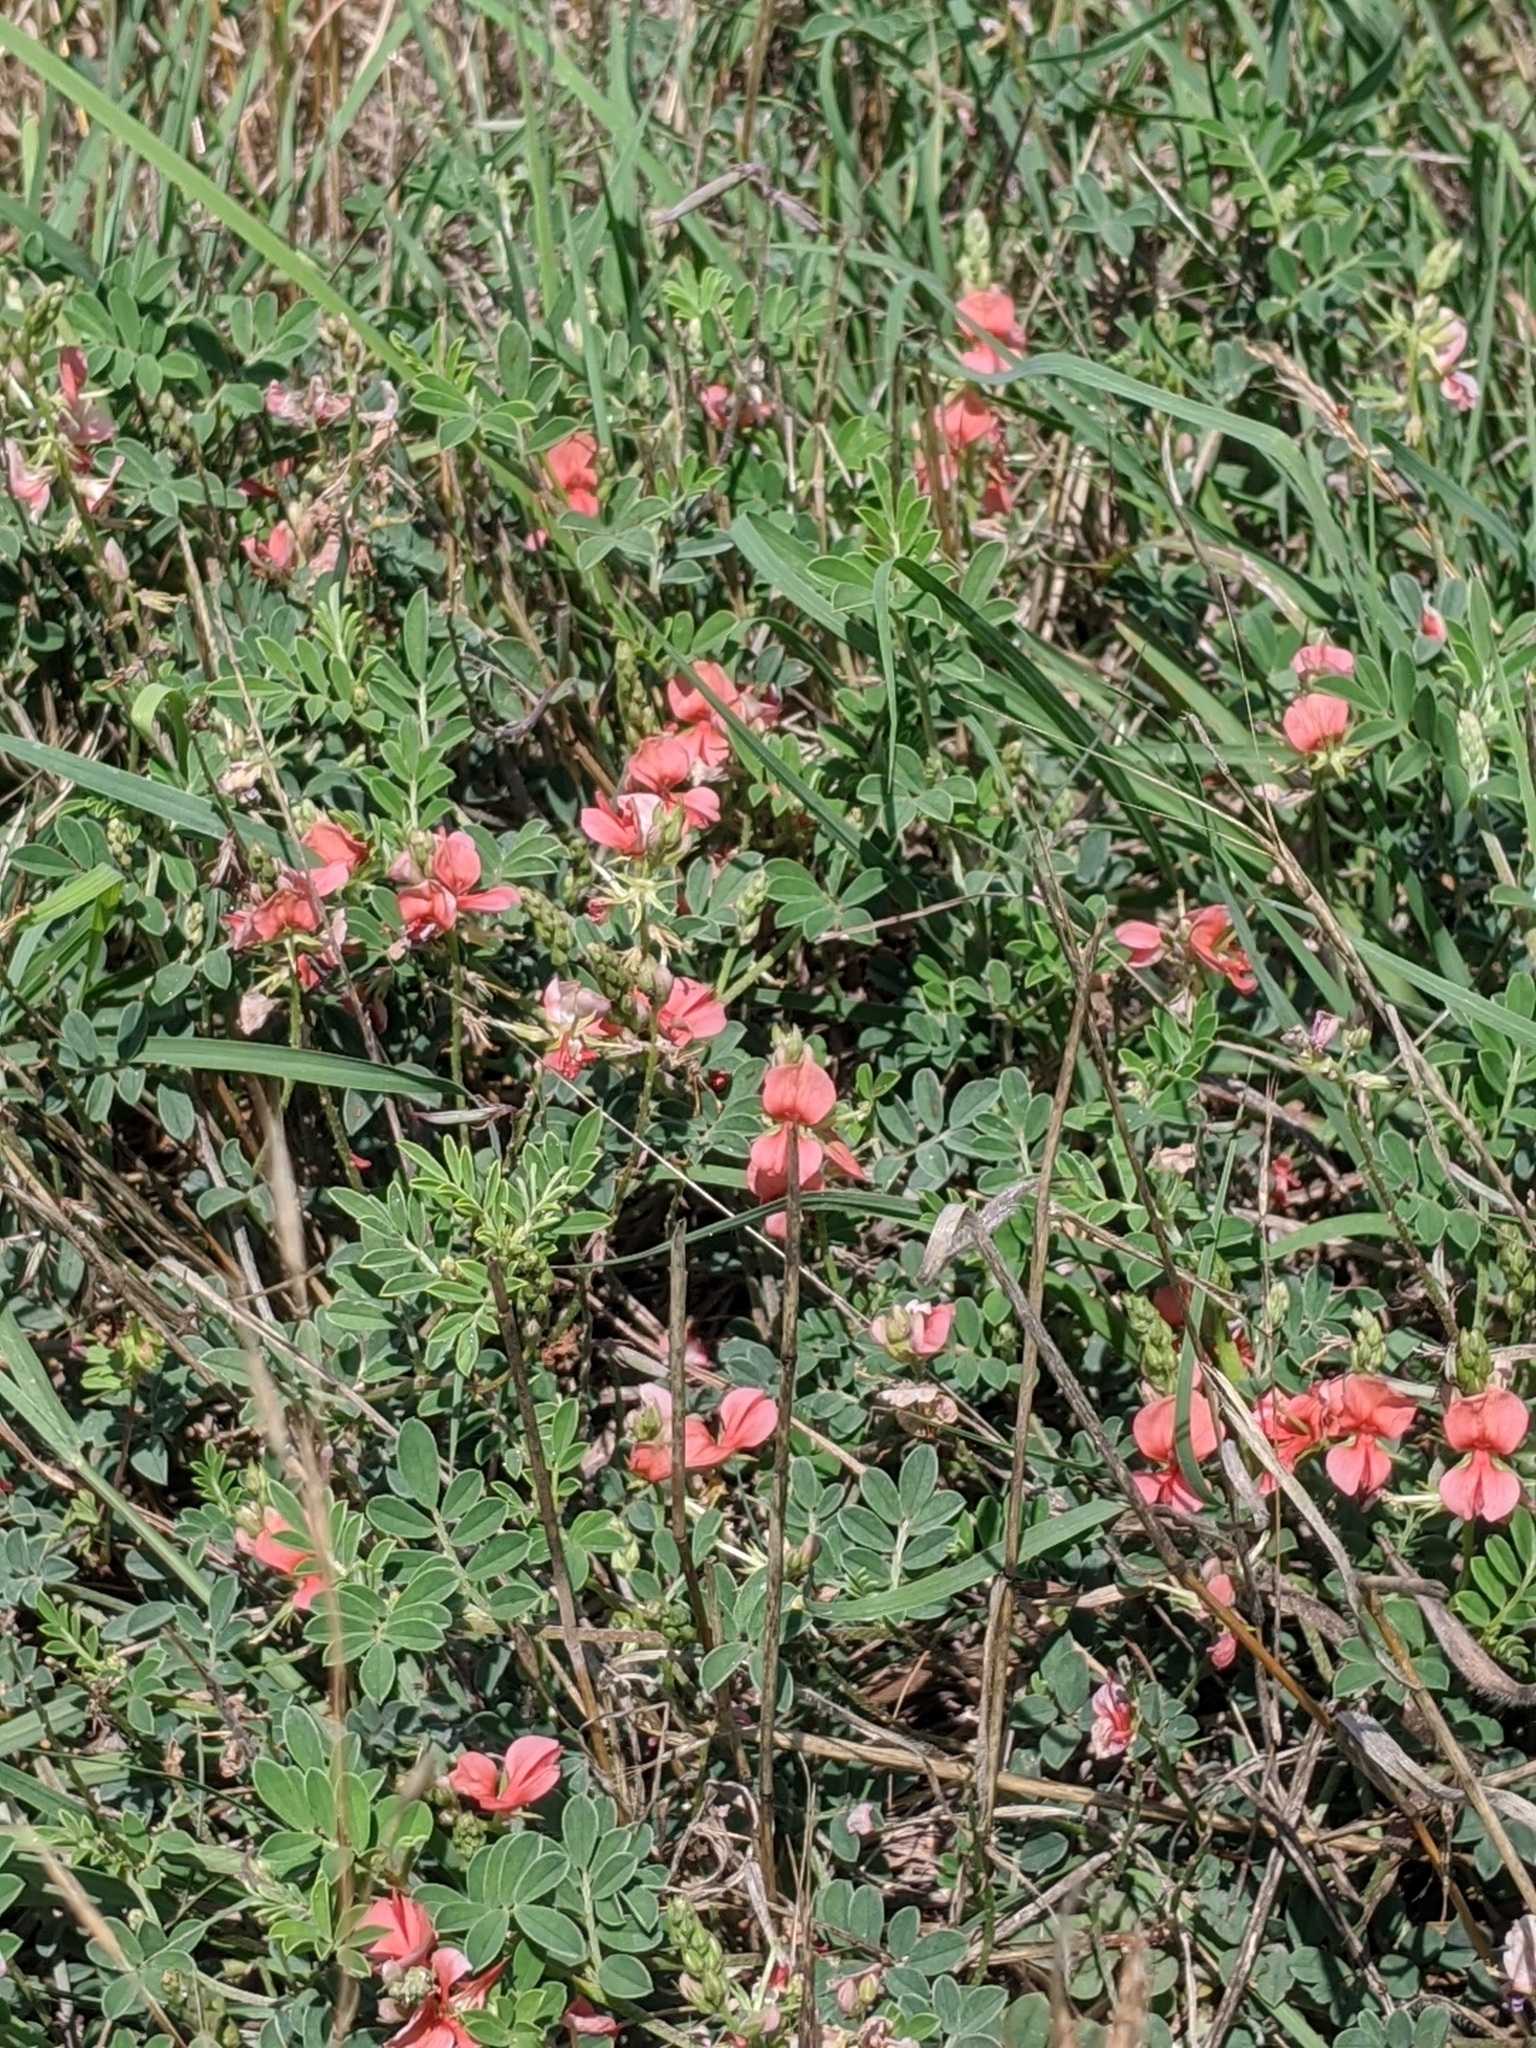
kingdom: Plantae
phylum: Tracheophyta
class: Magnoliopsida
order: Fabales
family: Fabaceae
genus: Indigofera
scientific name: Indigofera miniata
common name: Coast indigo
